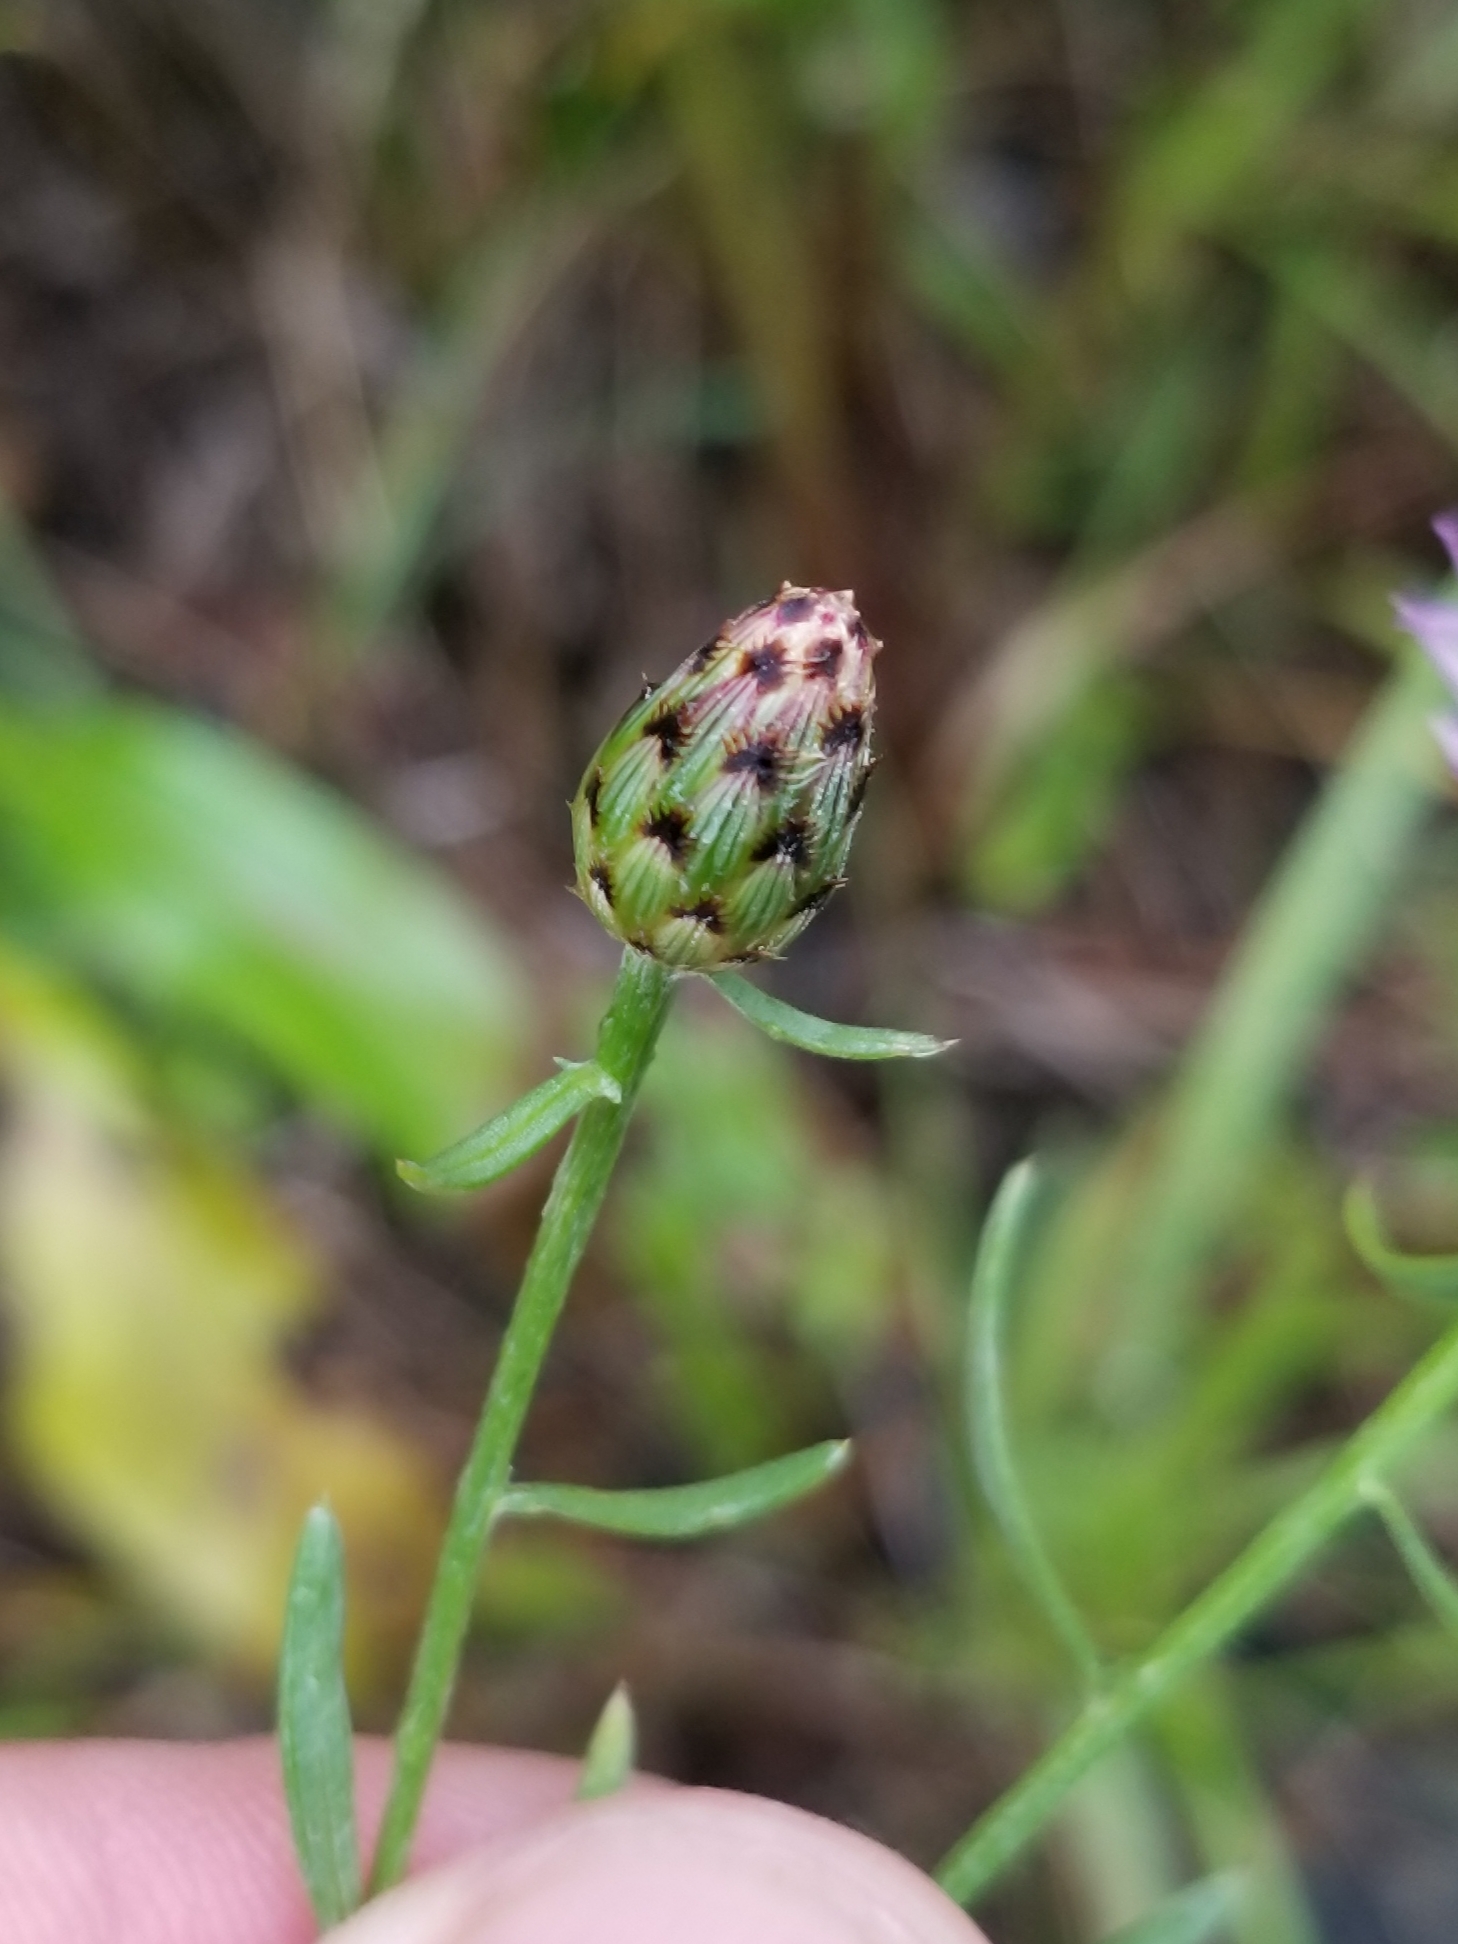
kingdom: Plantae
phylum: Tracheophyta
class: Magnoliopsida
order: Asterales
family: Asteraceae
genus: Centaurea
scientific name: Centaurea stoebe
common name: Spotted knapweed
